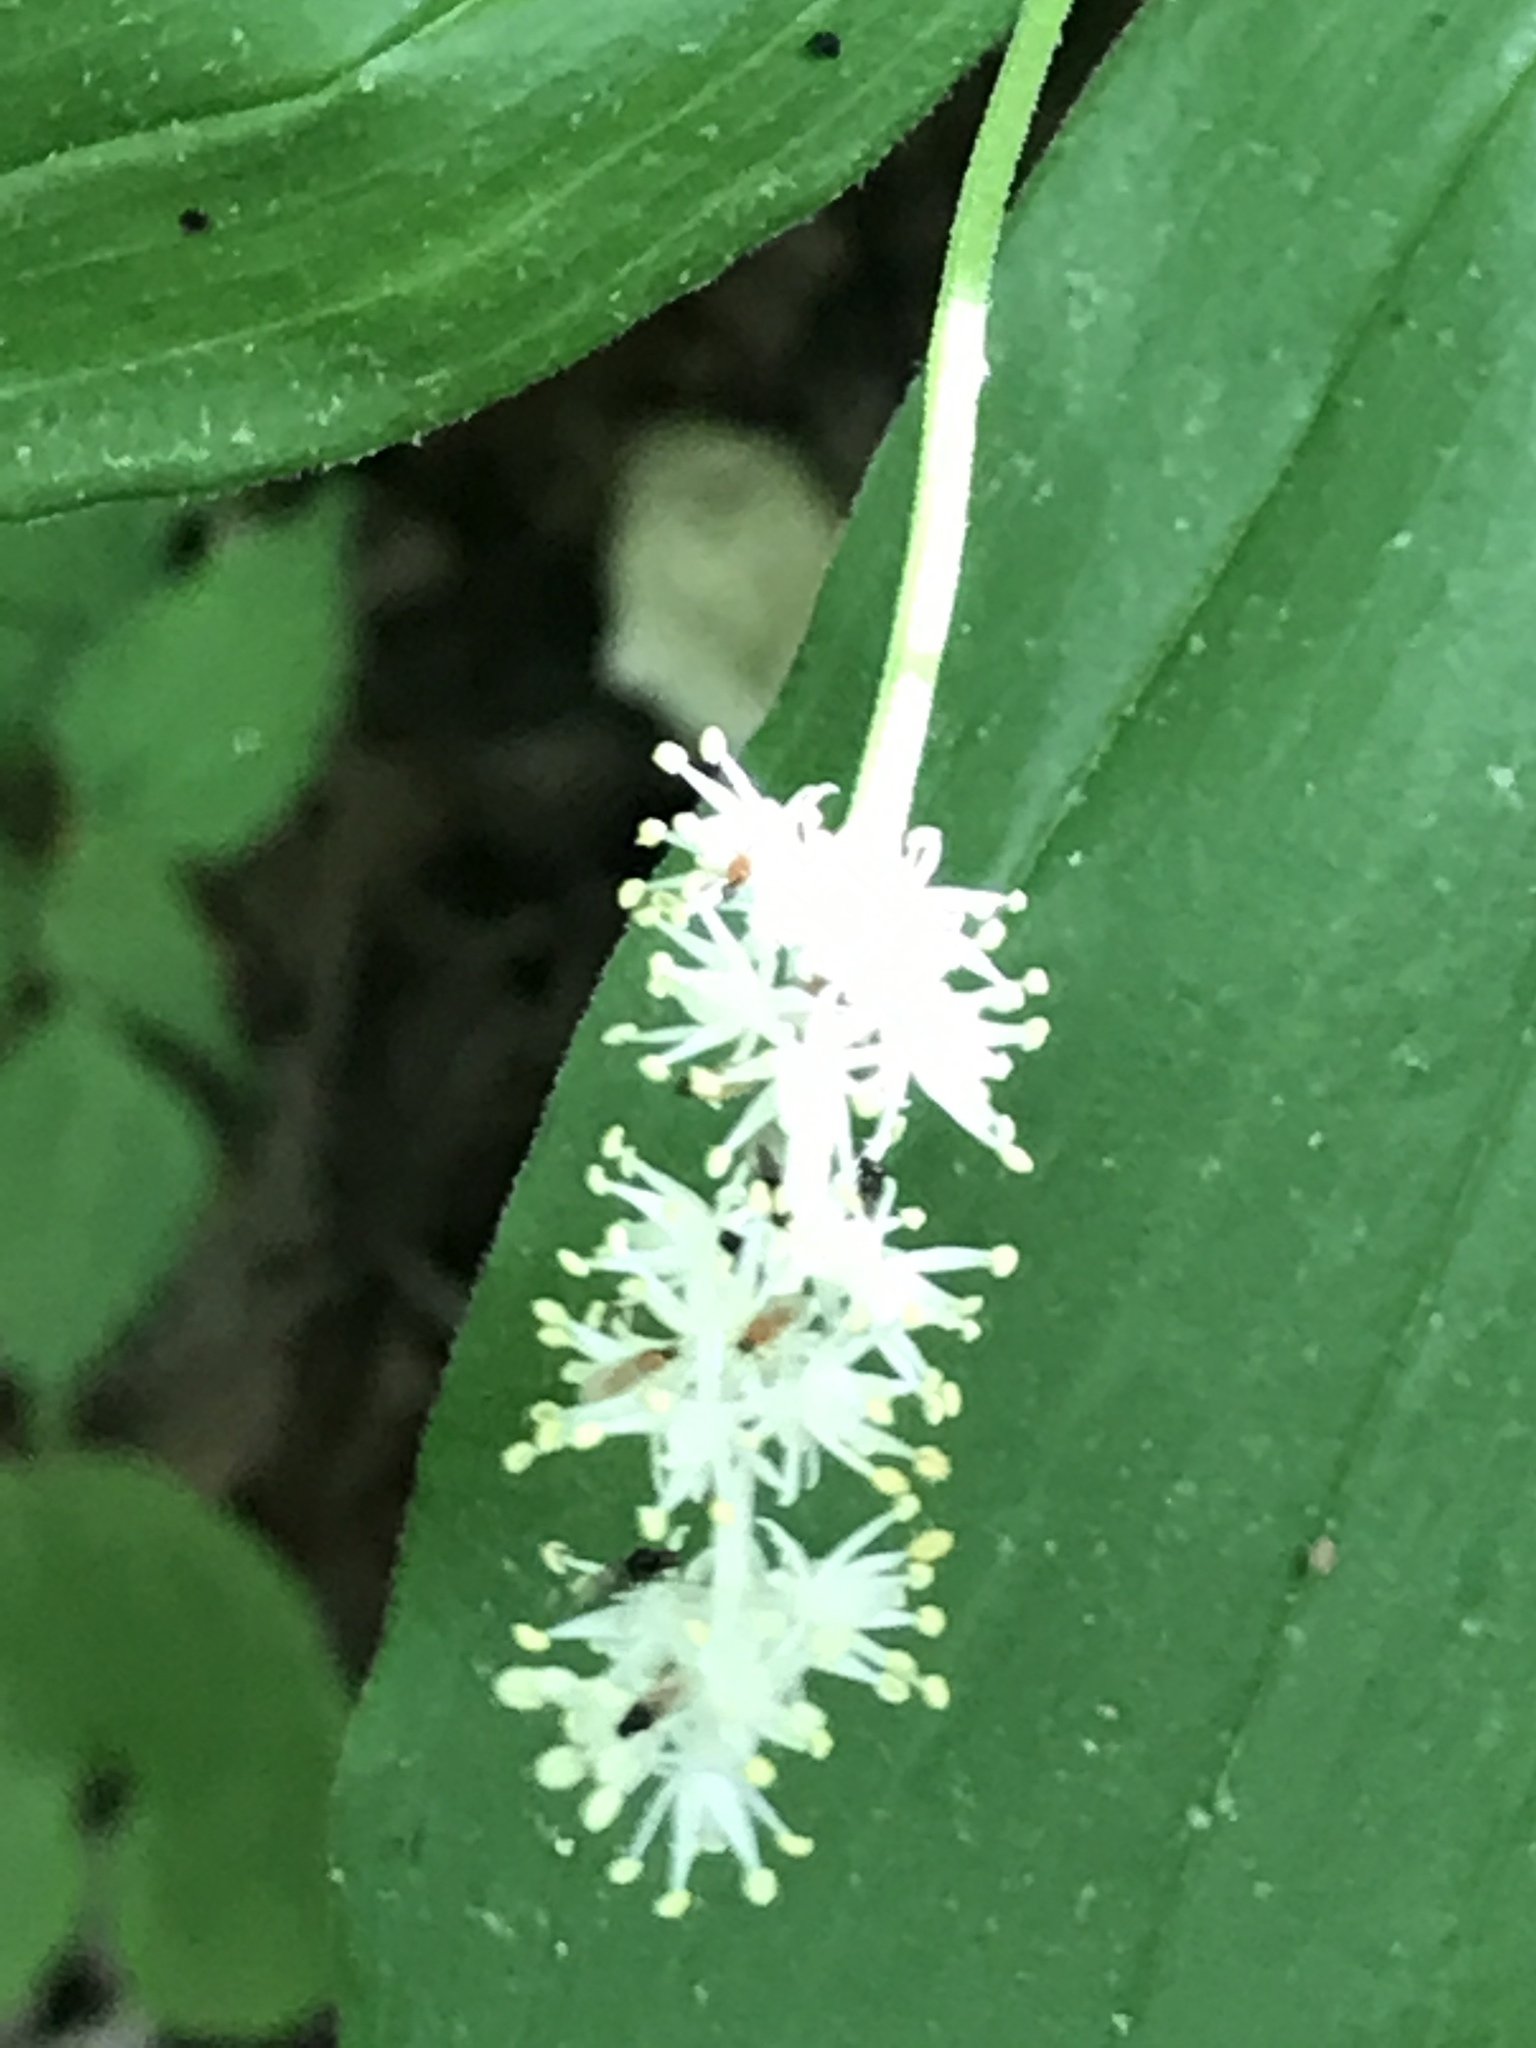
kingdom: Plantae
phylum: Tracheophyta
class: Liliopsida
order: Asparagales
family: Asparagaceae
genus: Maianthemum
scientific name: Maianthemum racemosum
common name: False spikenard
